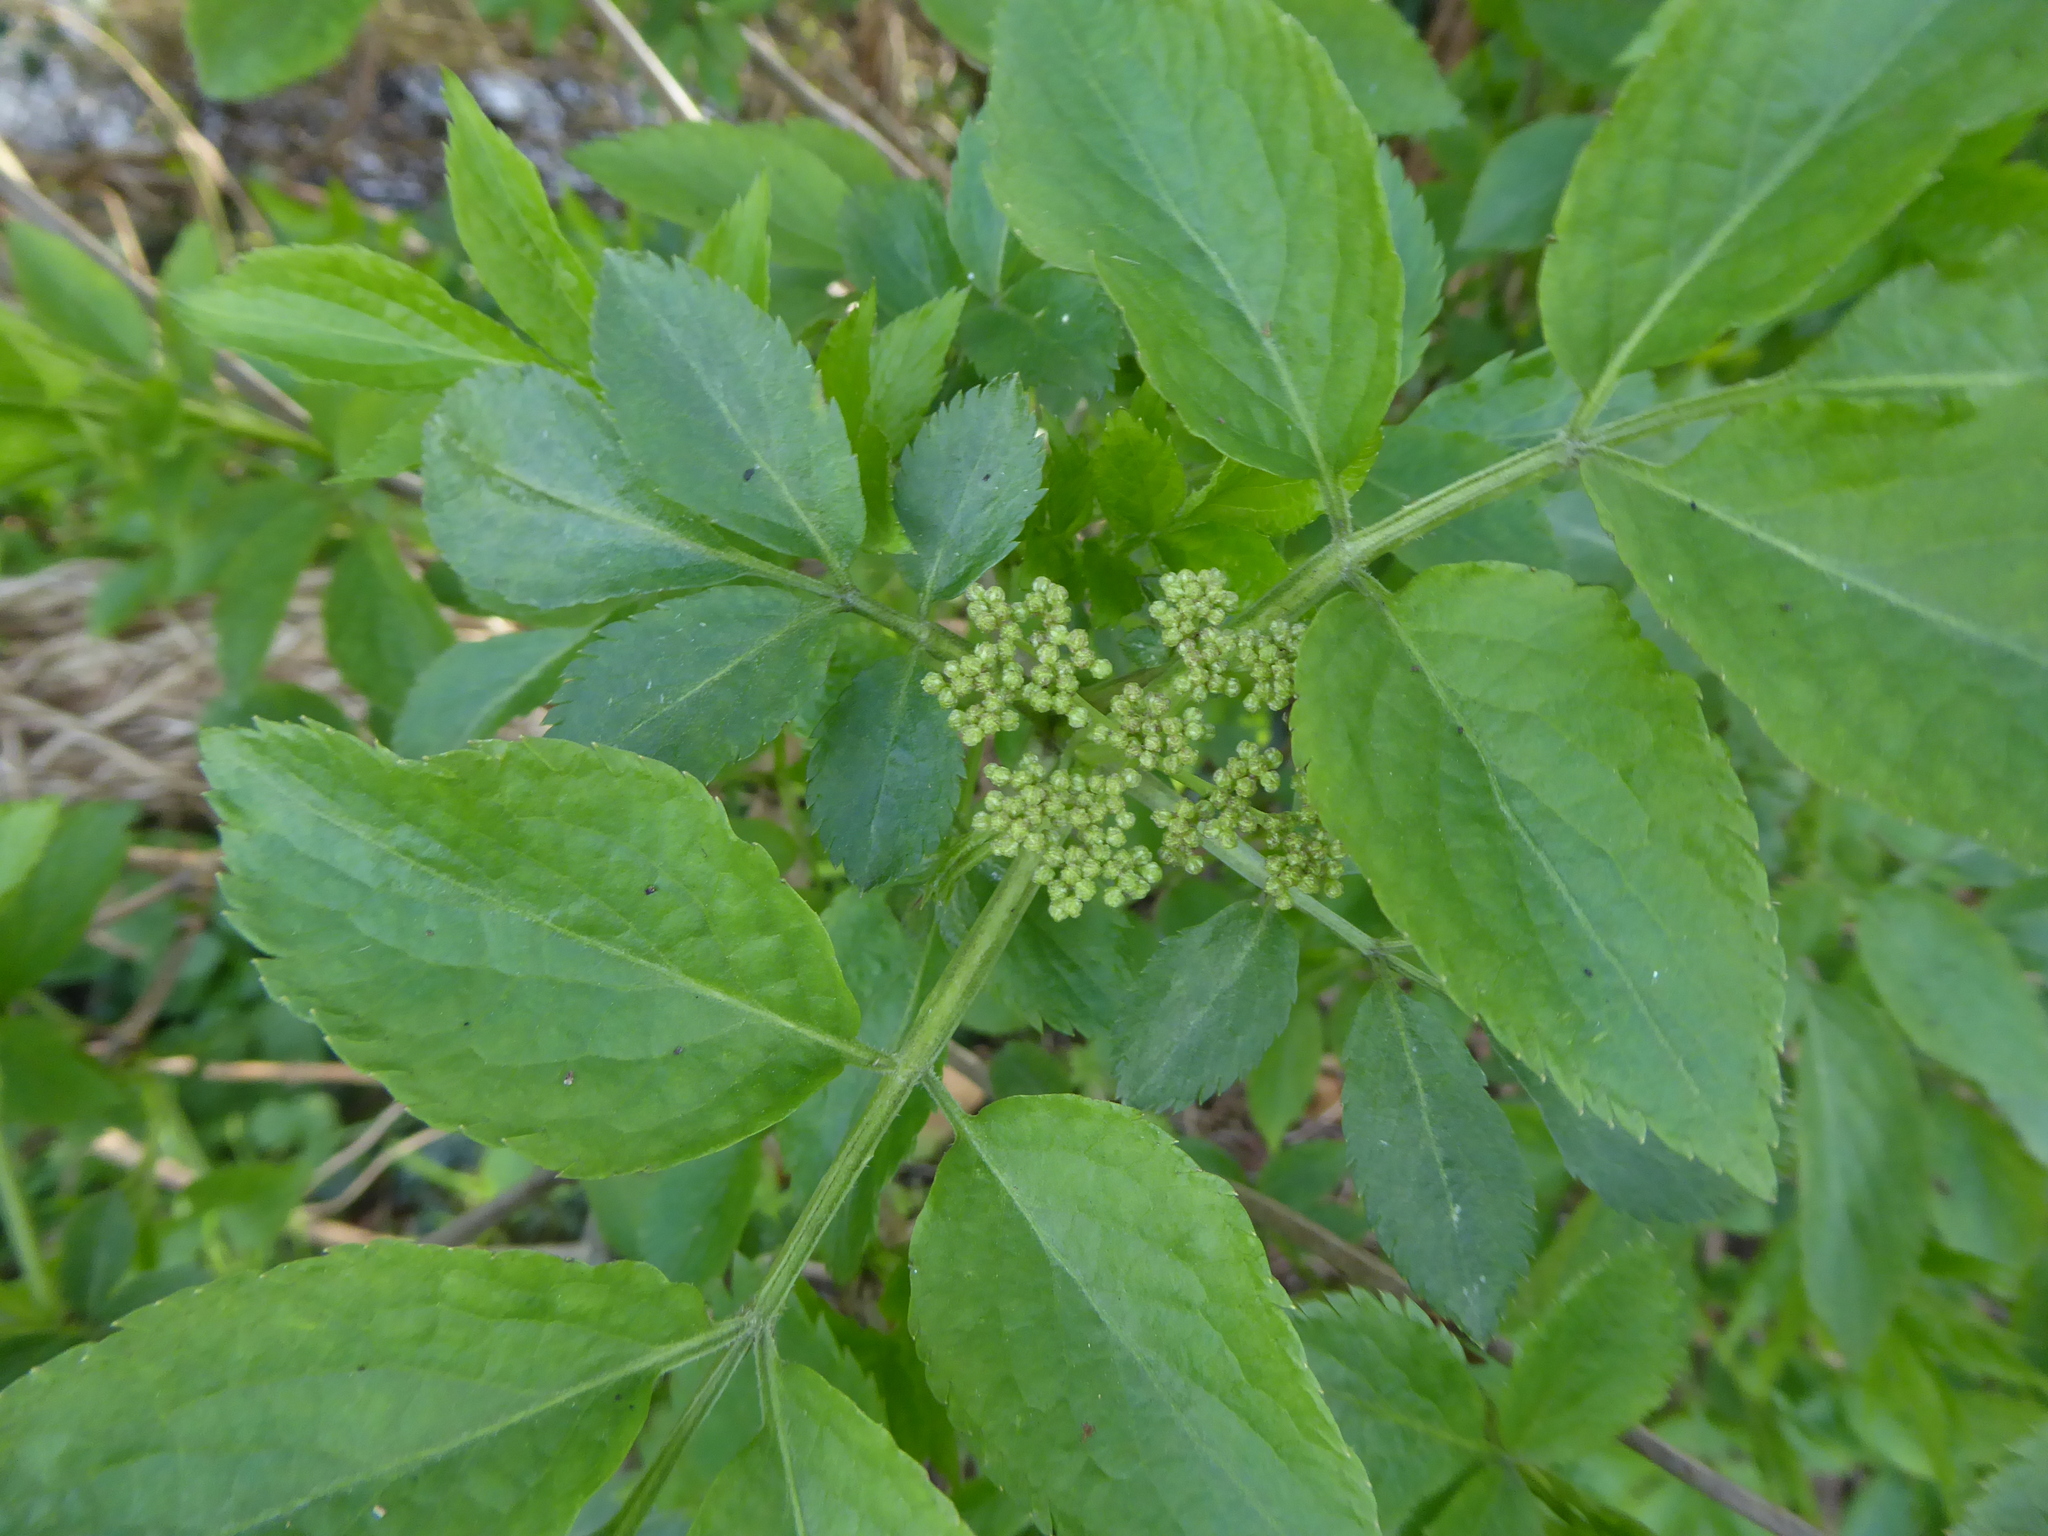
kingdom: Plantae
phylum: Tracheophyta
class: Magnoliopsida
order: Dipsacales
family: Viburnaceae
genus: Sambucus
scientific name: Sambucus nigra
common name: Elder
